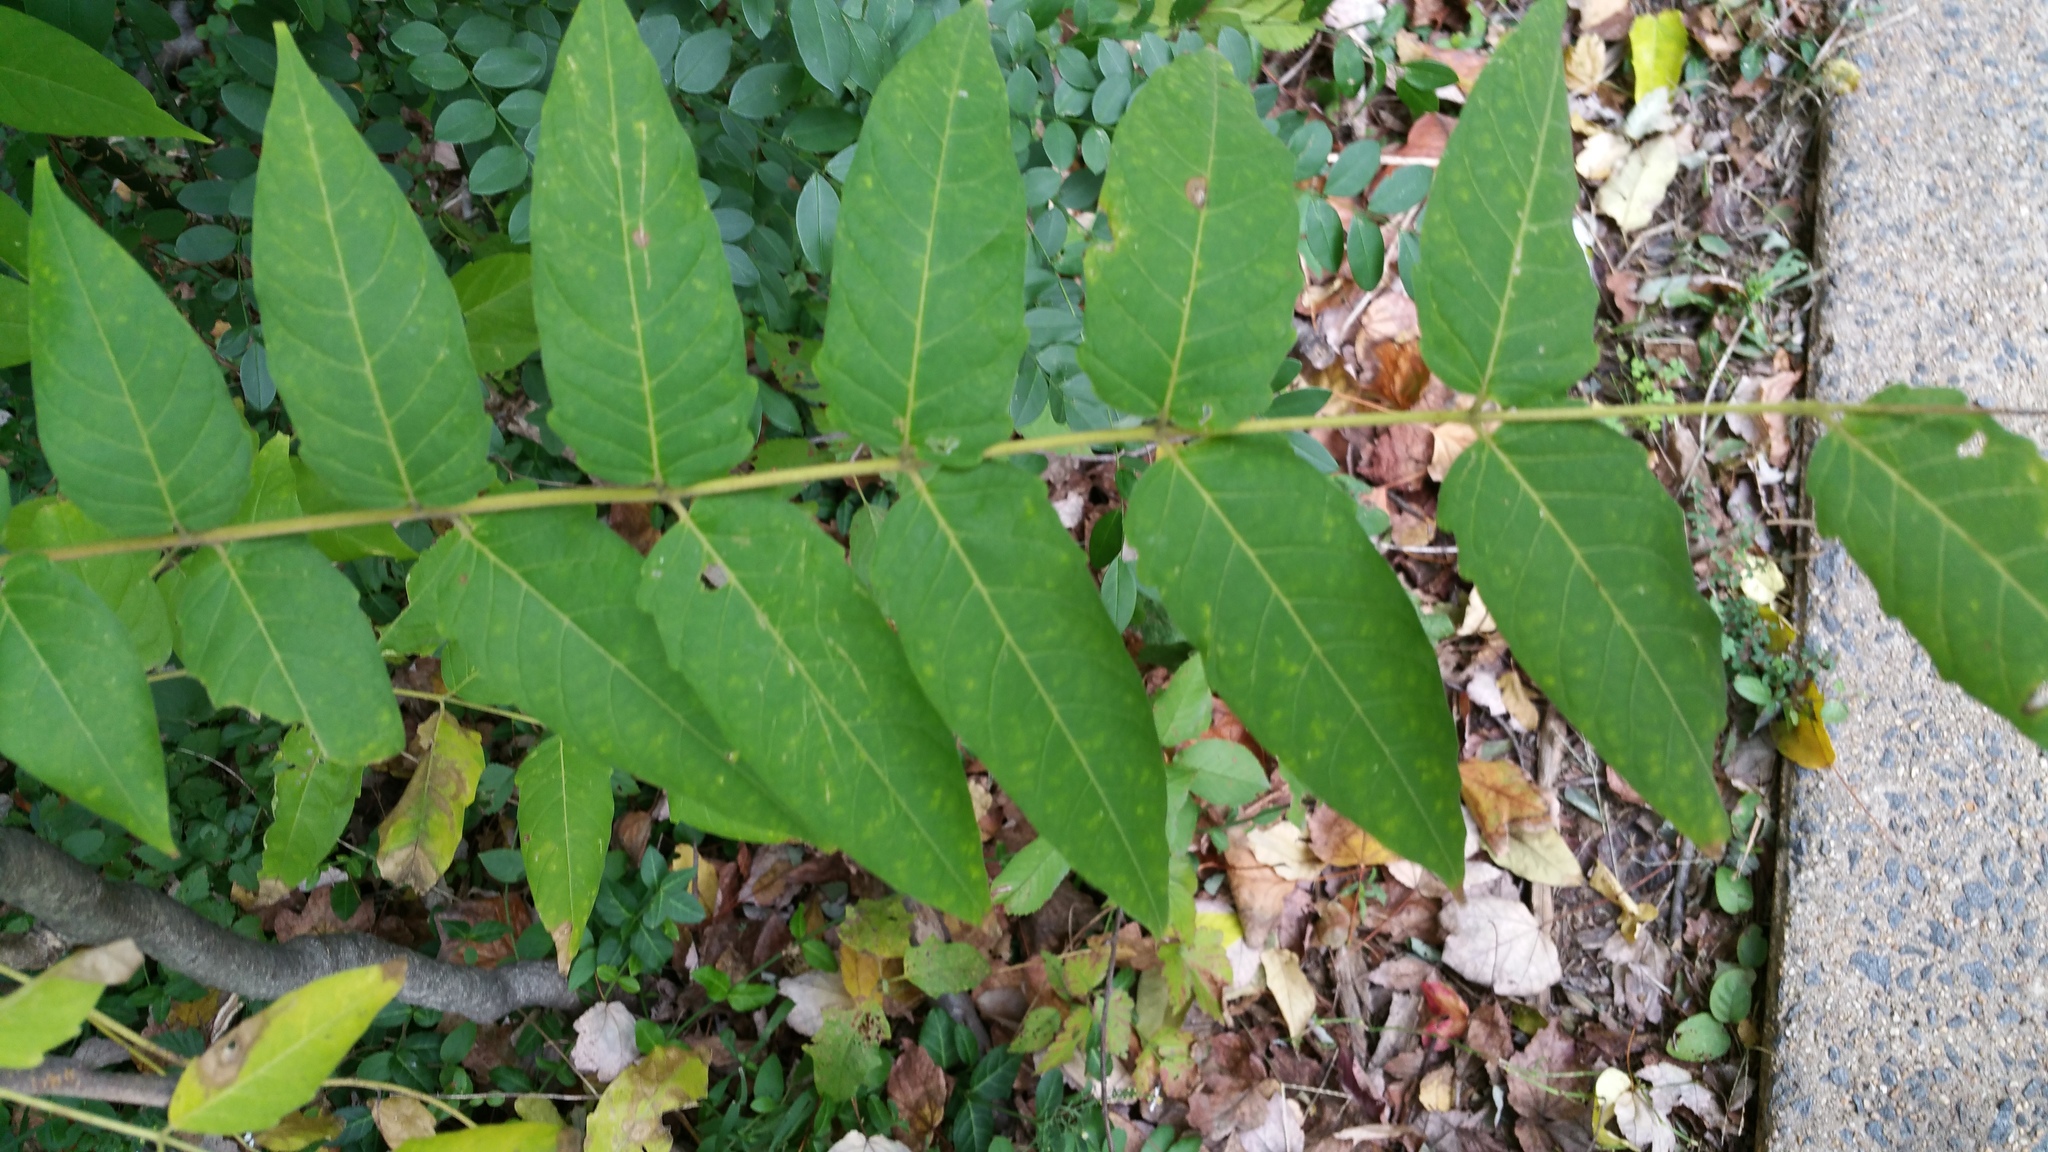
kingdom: Plantae
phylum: Tracheophyta
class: Magnoliopsida
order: Sapindales
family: Simaroubaceae
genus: Ailanthus
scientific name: Ailanthus altissima
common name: Tree-of-heaven
